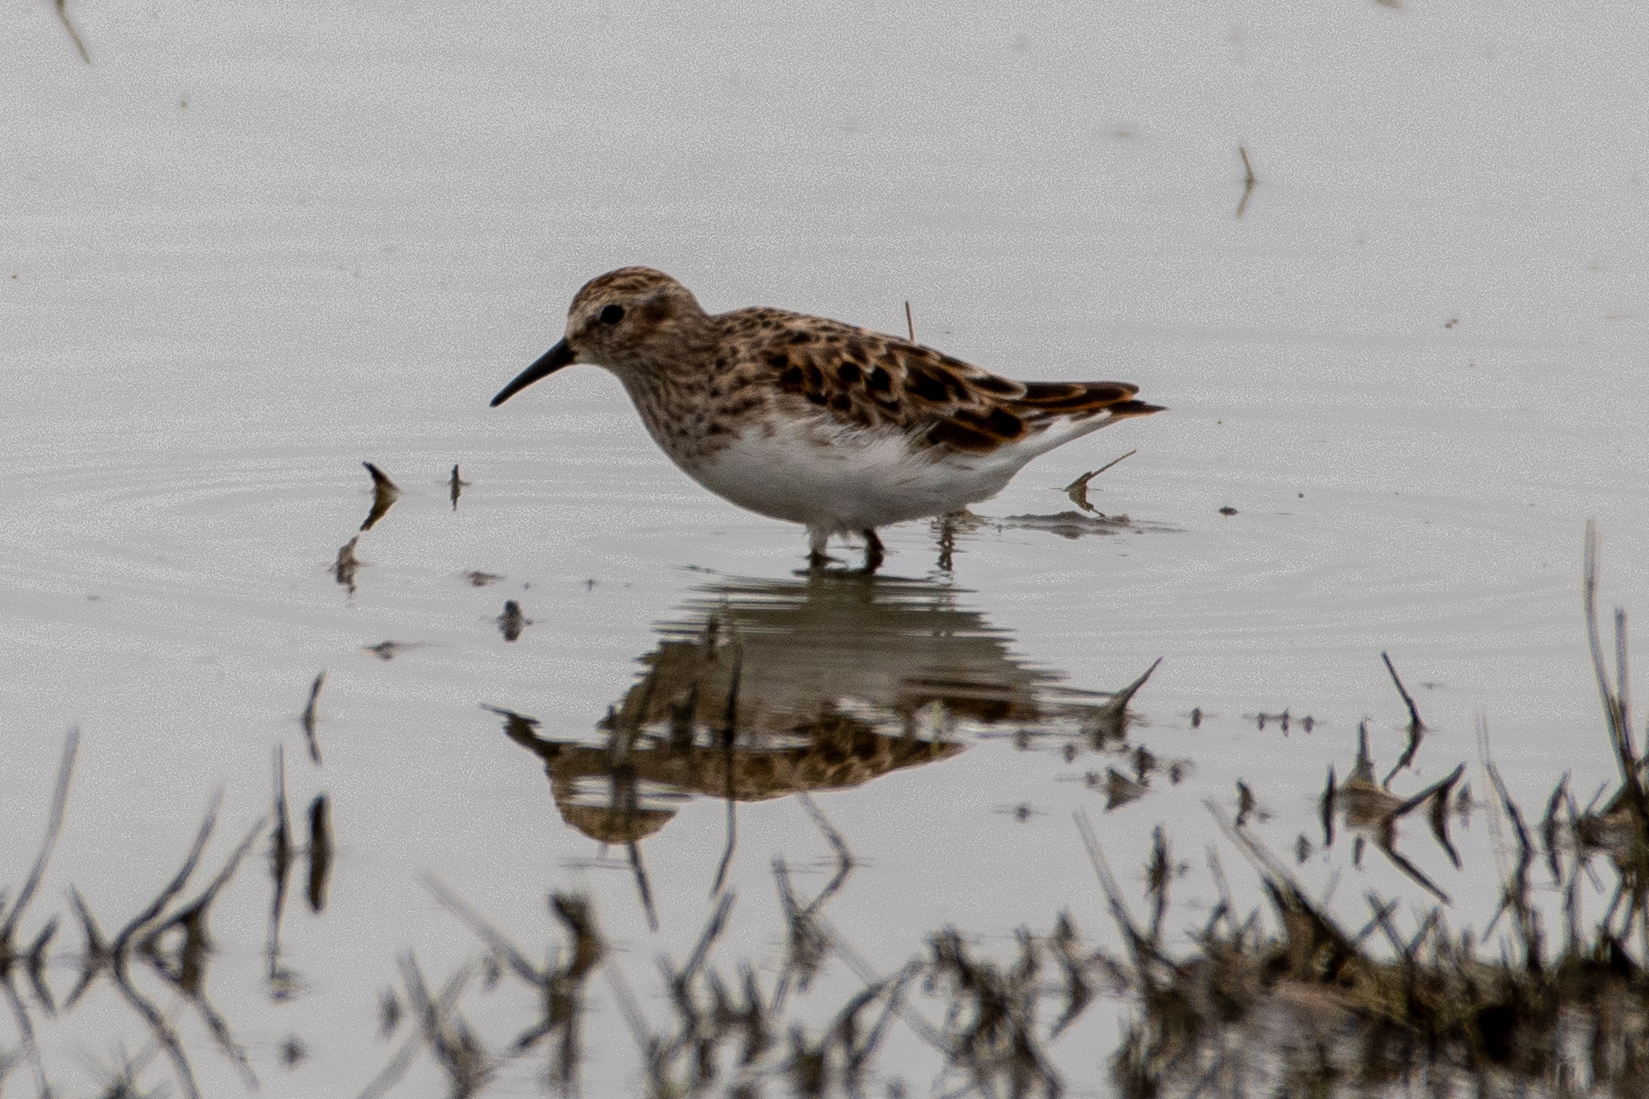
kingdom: Animalia
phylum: Chordata
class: Aves
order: Charadriiformes
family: Scolopacidae
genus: Calidris
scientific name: Calidris minutilla
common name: Least sandpiper
